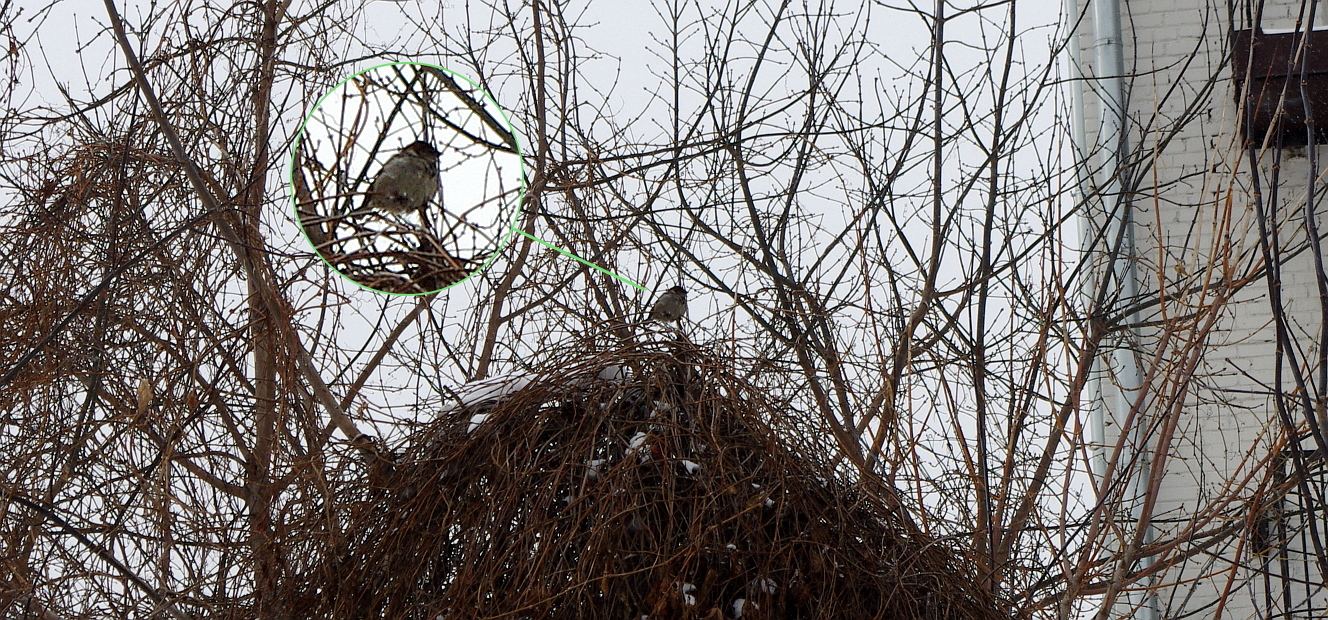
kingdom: Animalia
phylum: Chordata
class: Aves
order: Passeriformes
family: Passeridae
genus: Passer
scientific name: Passer domesticus
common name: House sparrow
